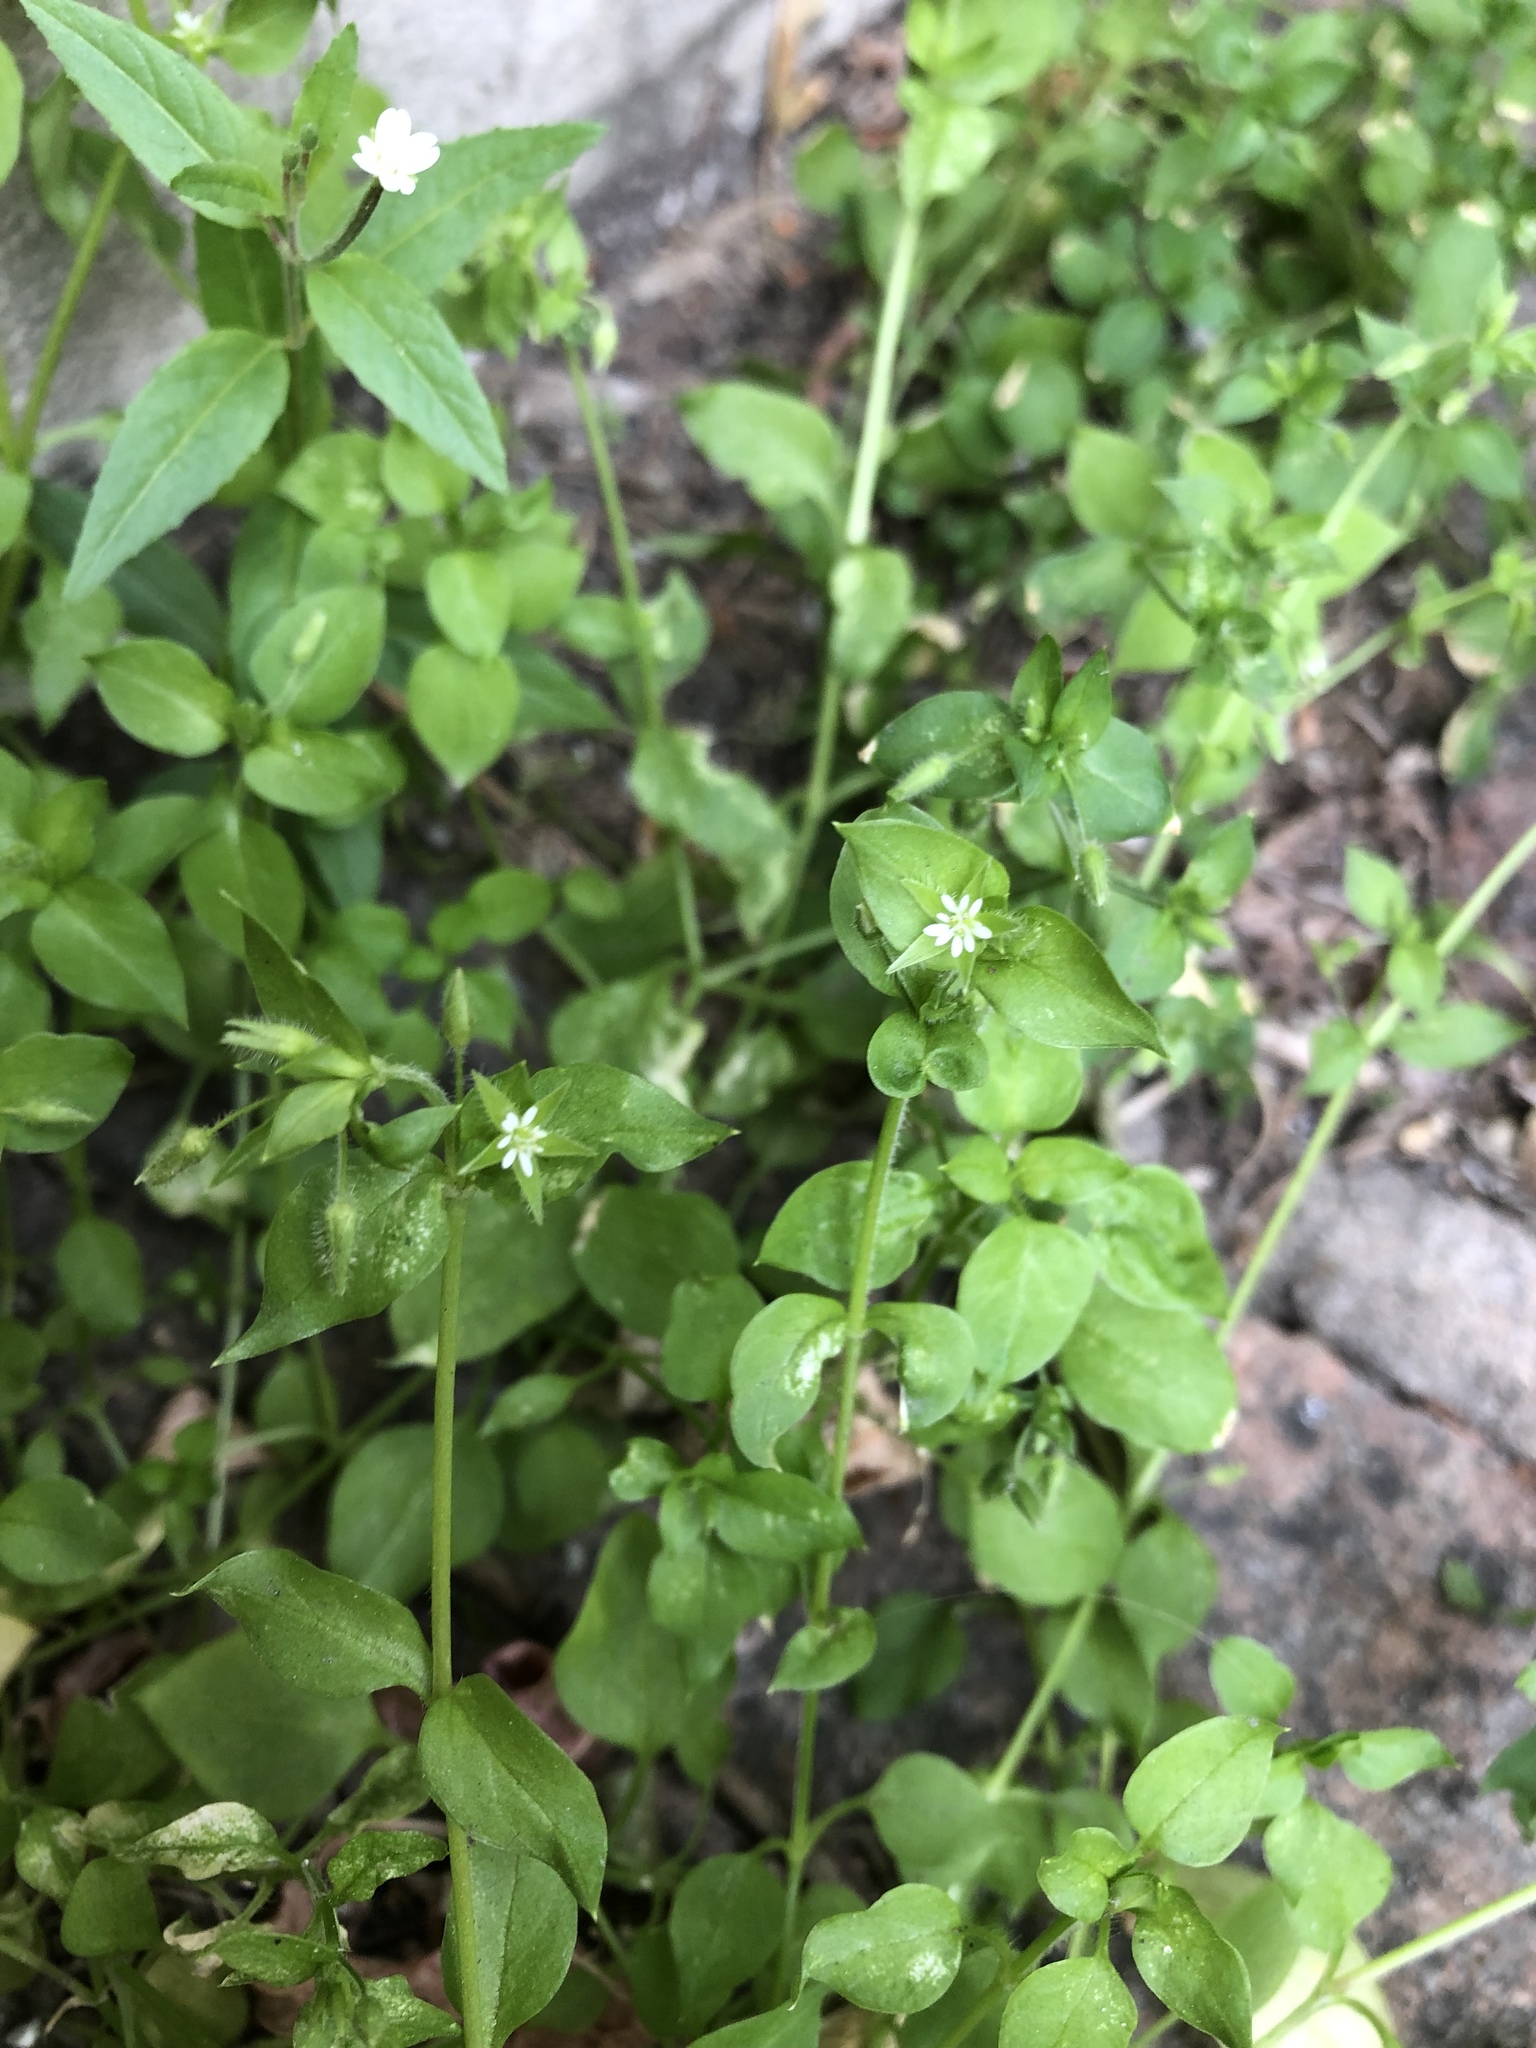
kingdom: Plantae
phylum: Tracheophyta
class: Magnoliopsida
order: Caryophyllales
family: Caryophyllaceae
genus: Stellaria
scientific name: Stellaria media
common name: Common chickweed
